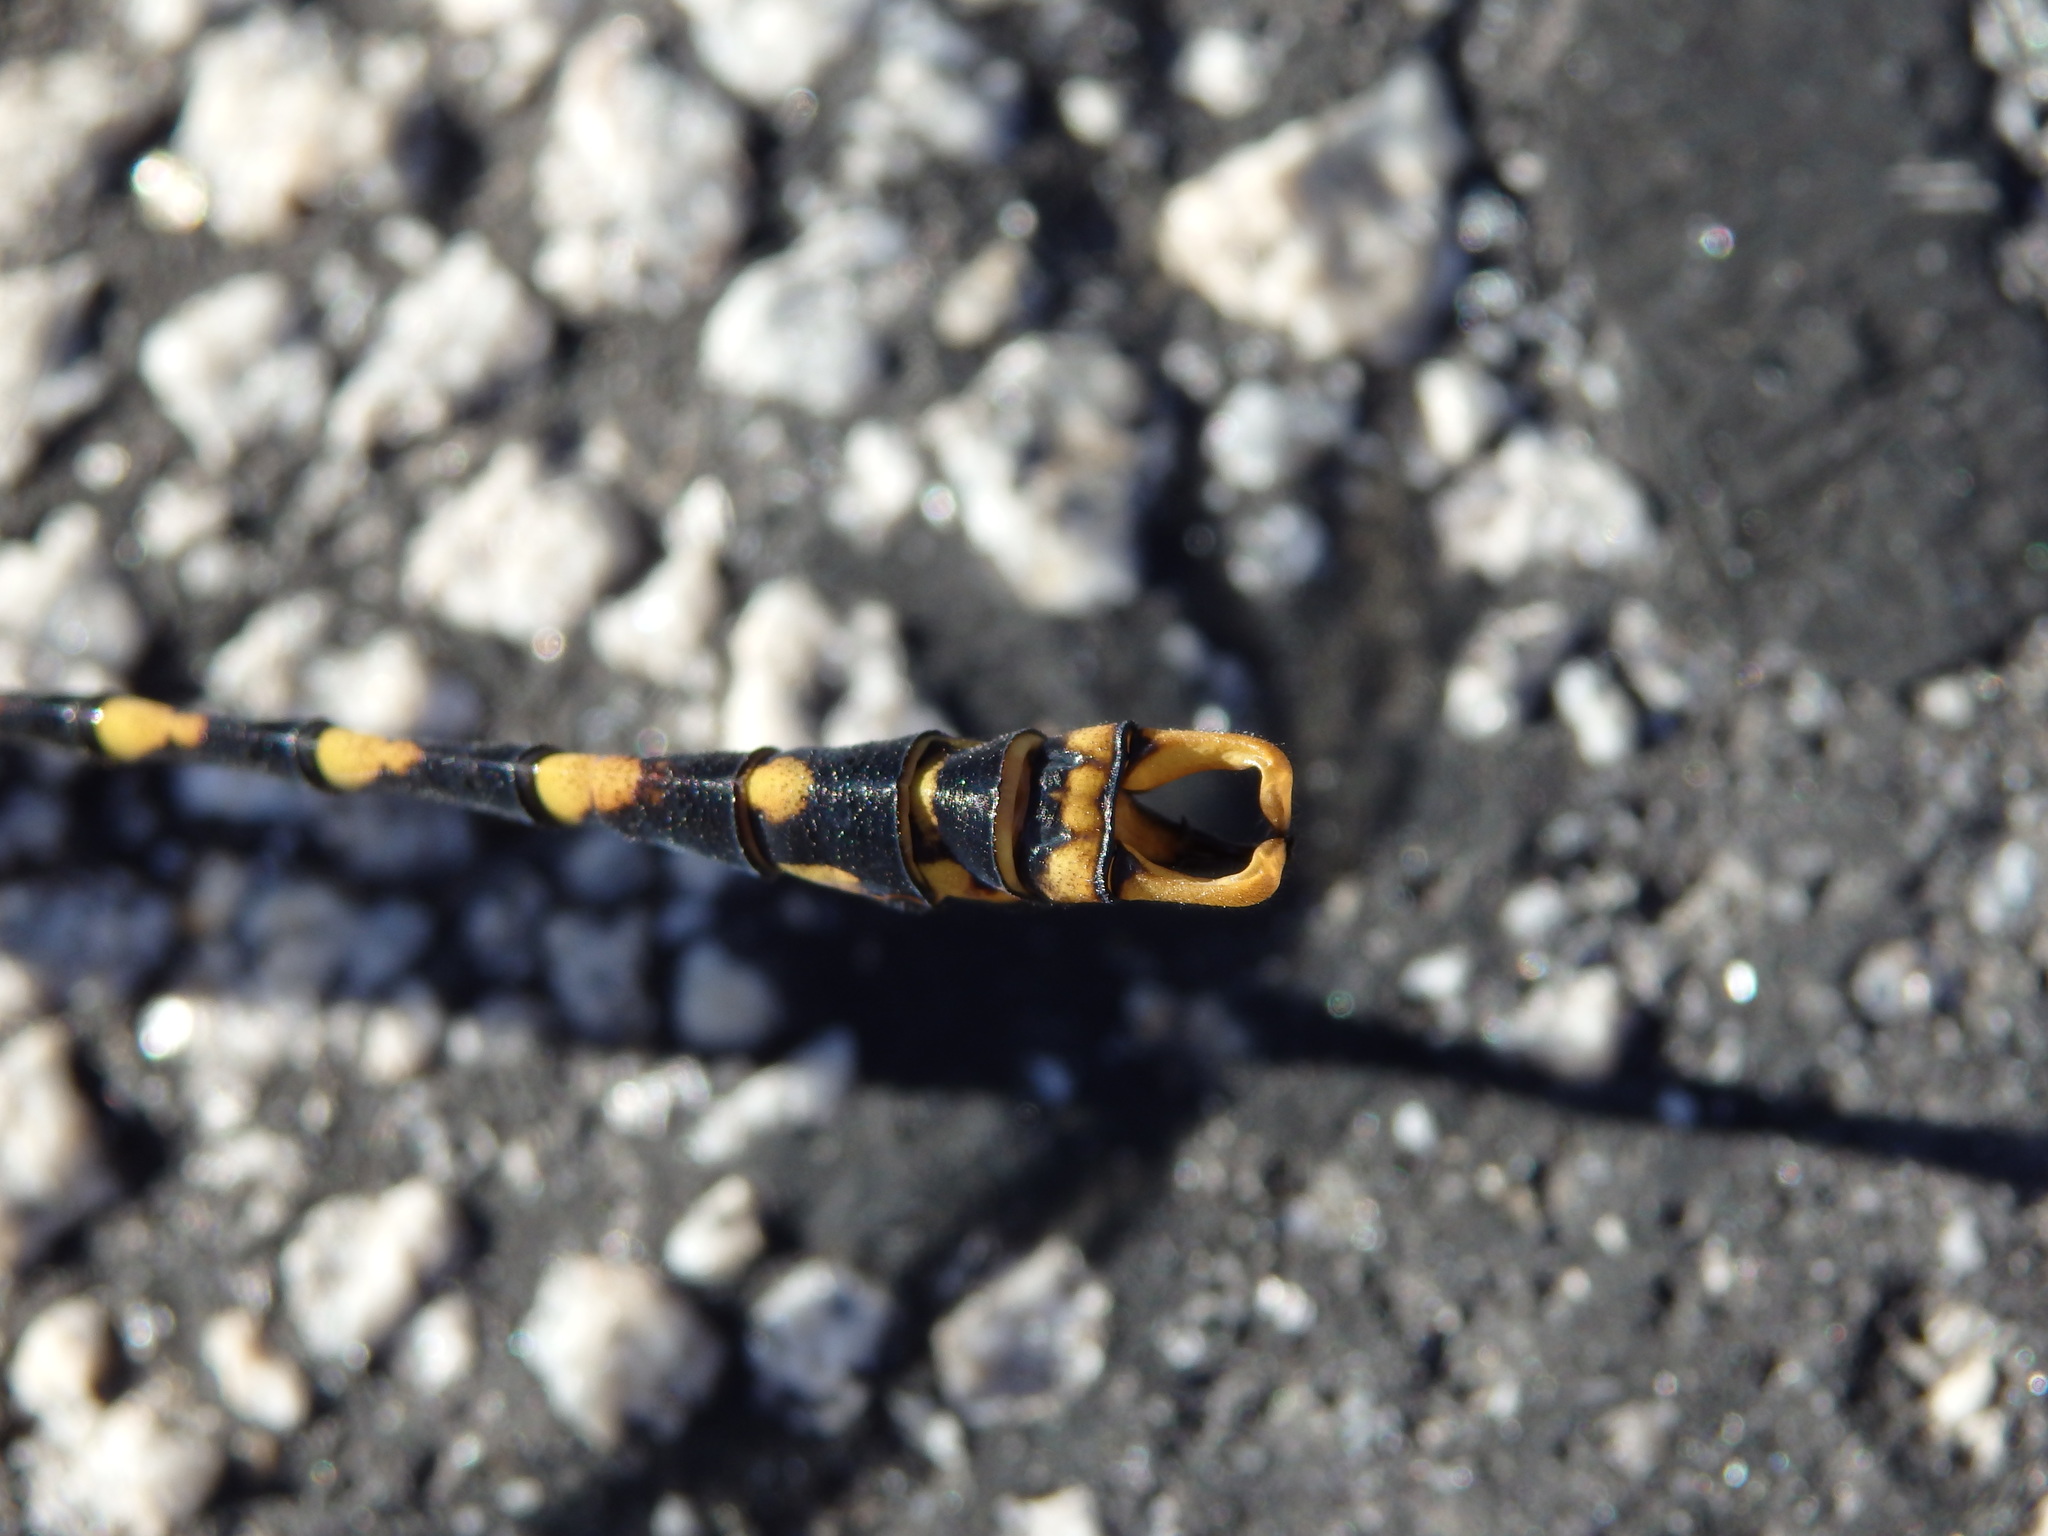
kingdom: Animalia
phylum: Arthropoda
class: Insecta
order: Odonata
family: Gomphidae
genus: Onychogomphus
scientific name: Onychogomphus uncatus
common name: Large pincertail
